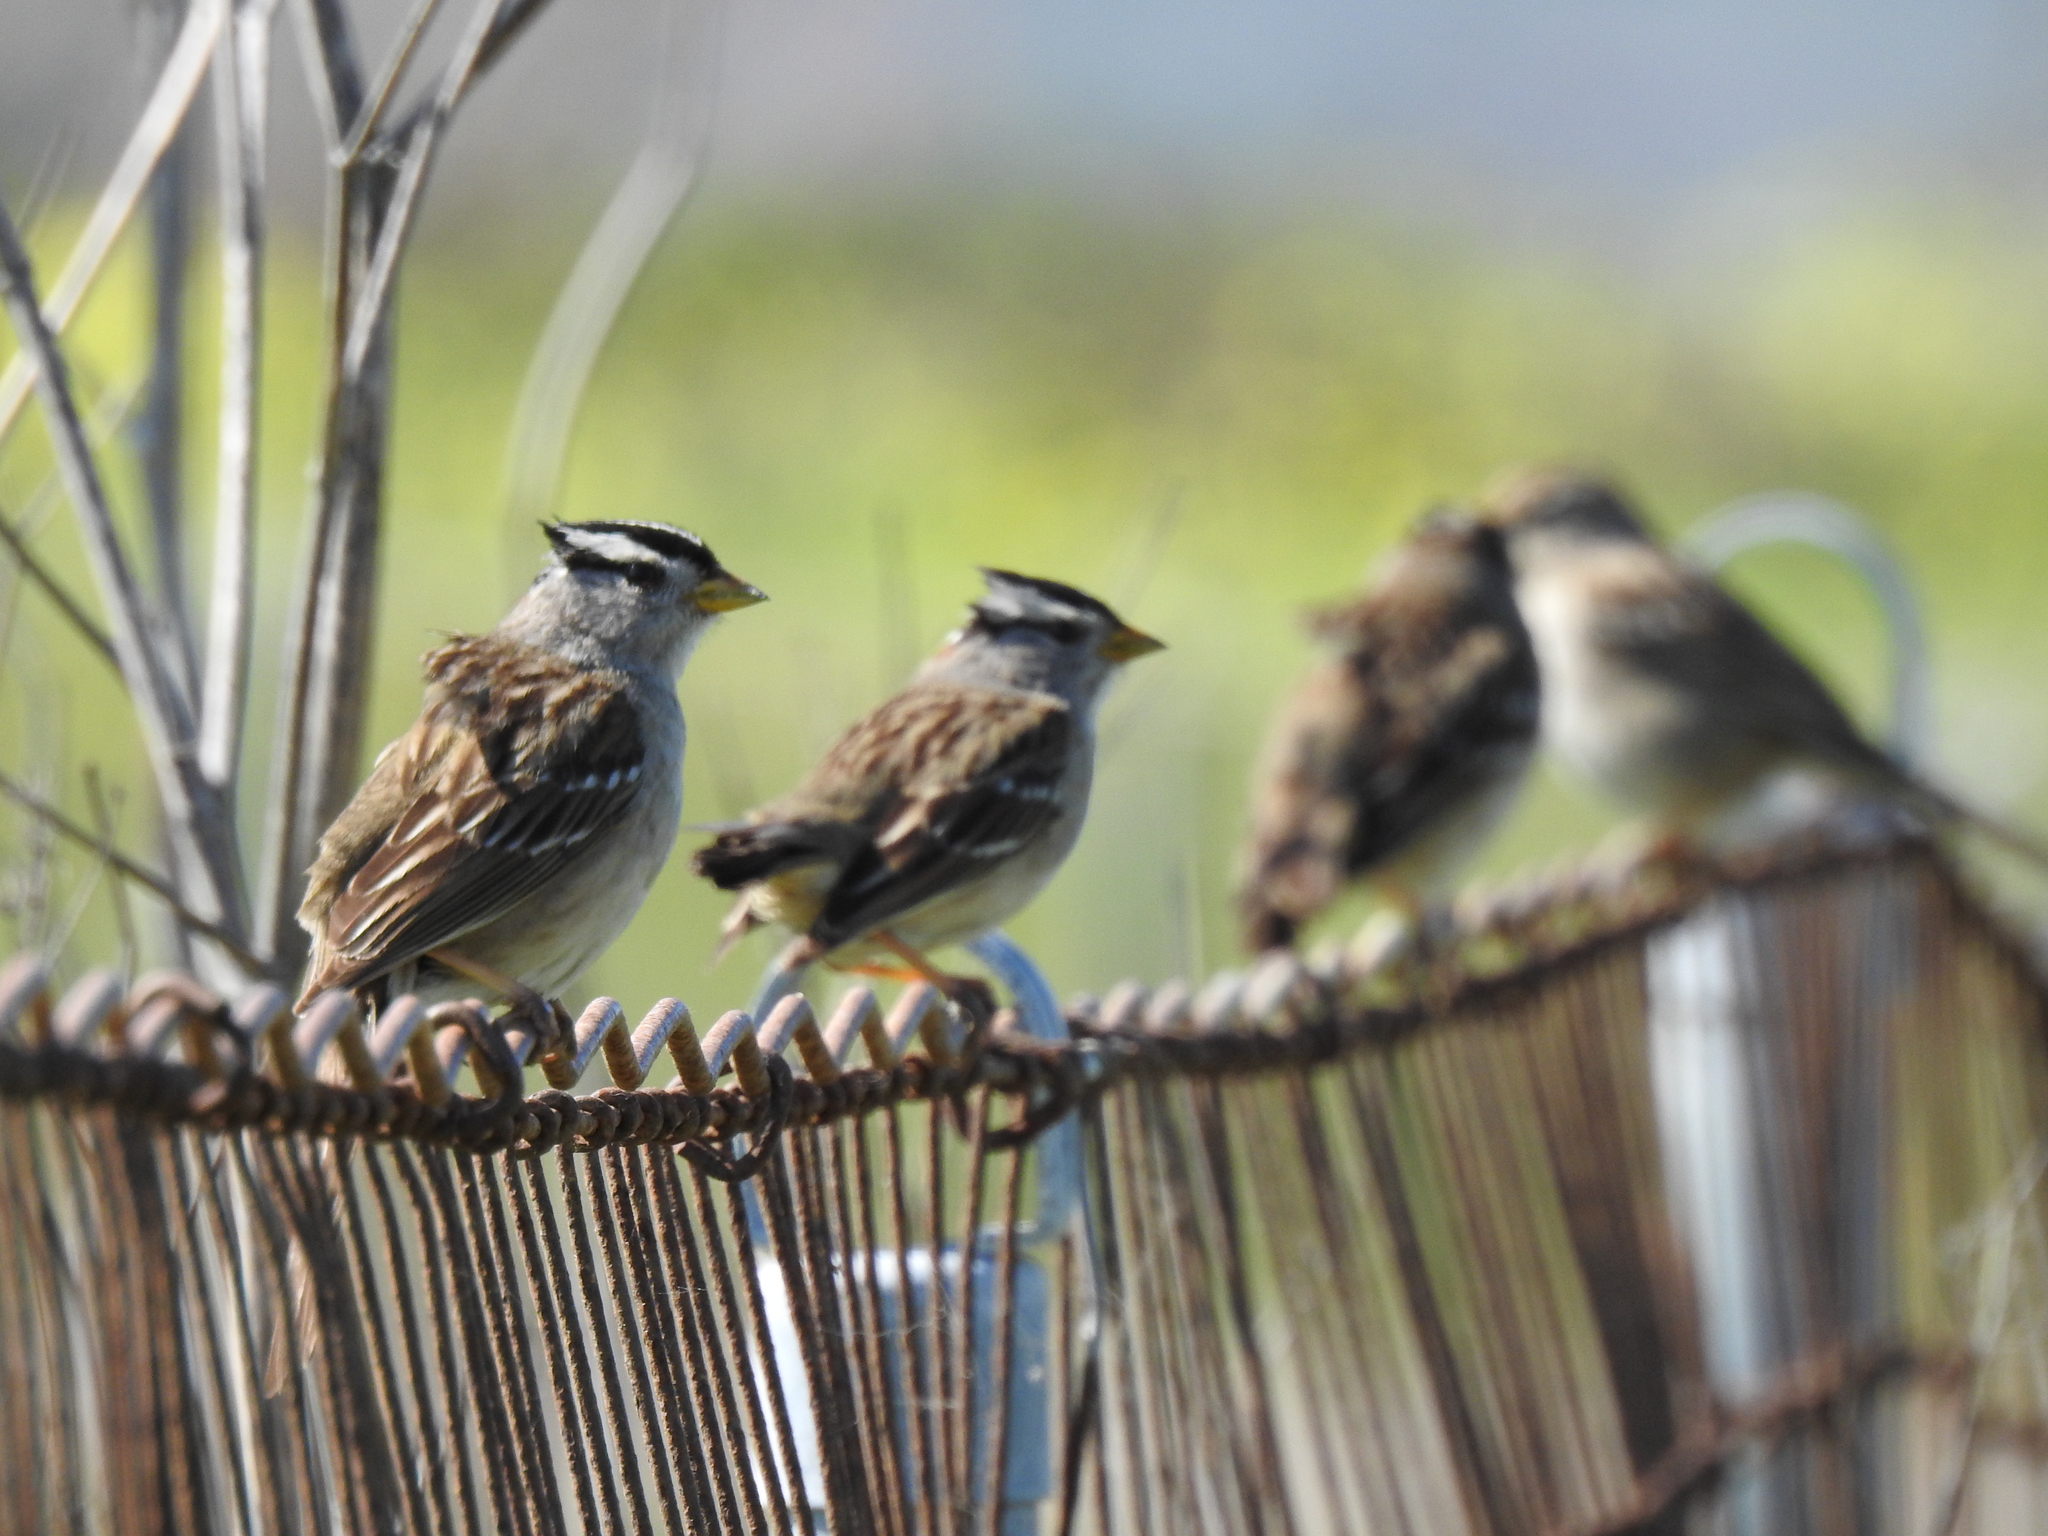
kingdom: Animalia
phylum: Chordata
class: Aves
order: Passeriformes
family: Passerellidae
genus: Zonotrichia
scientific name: Zonotrichia leucophrys
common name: White-crowned sparrow
